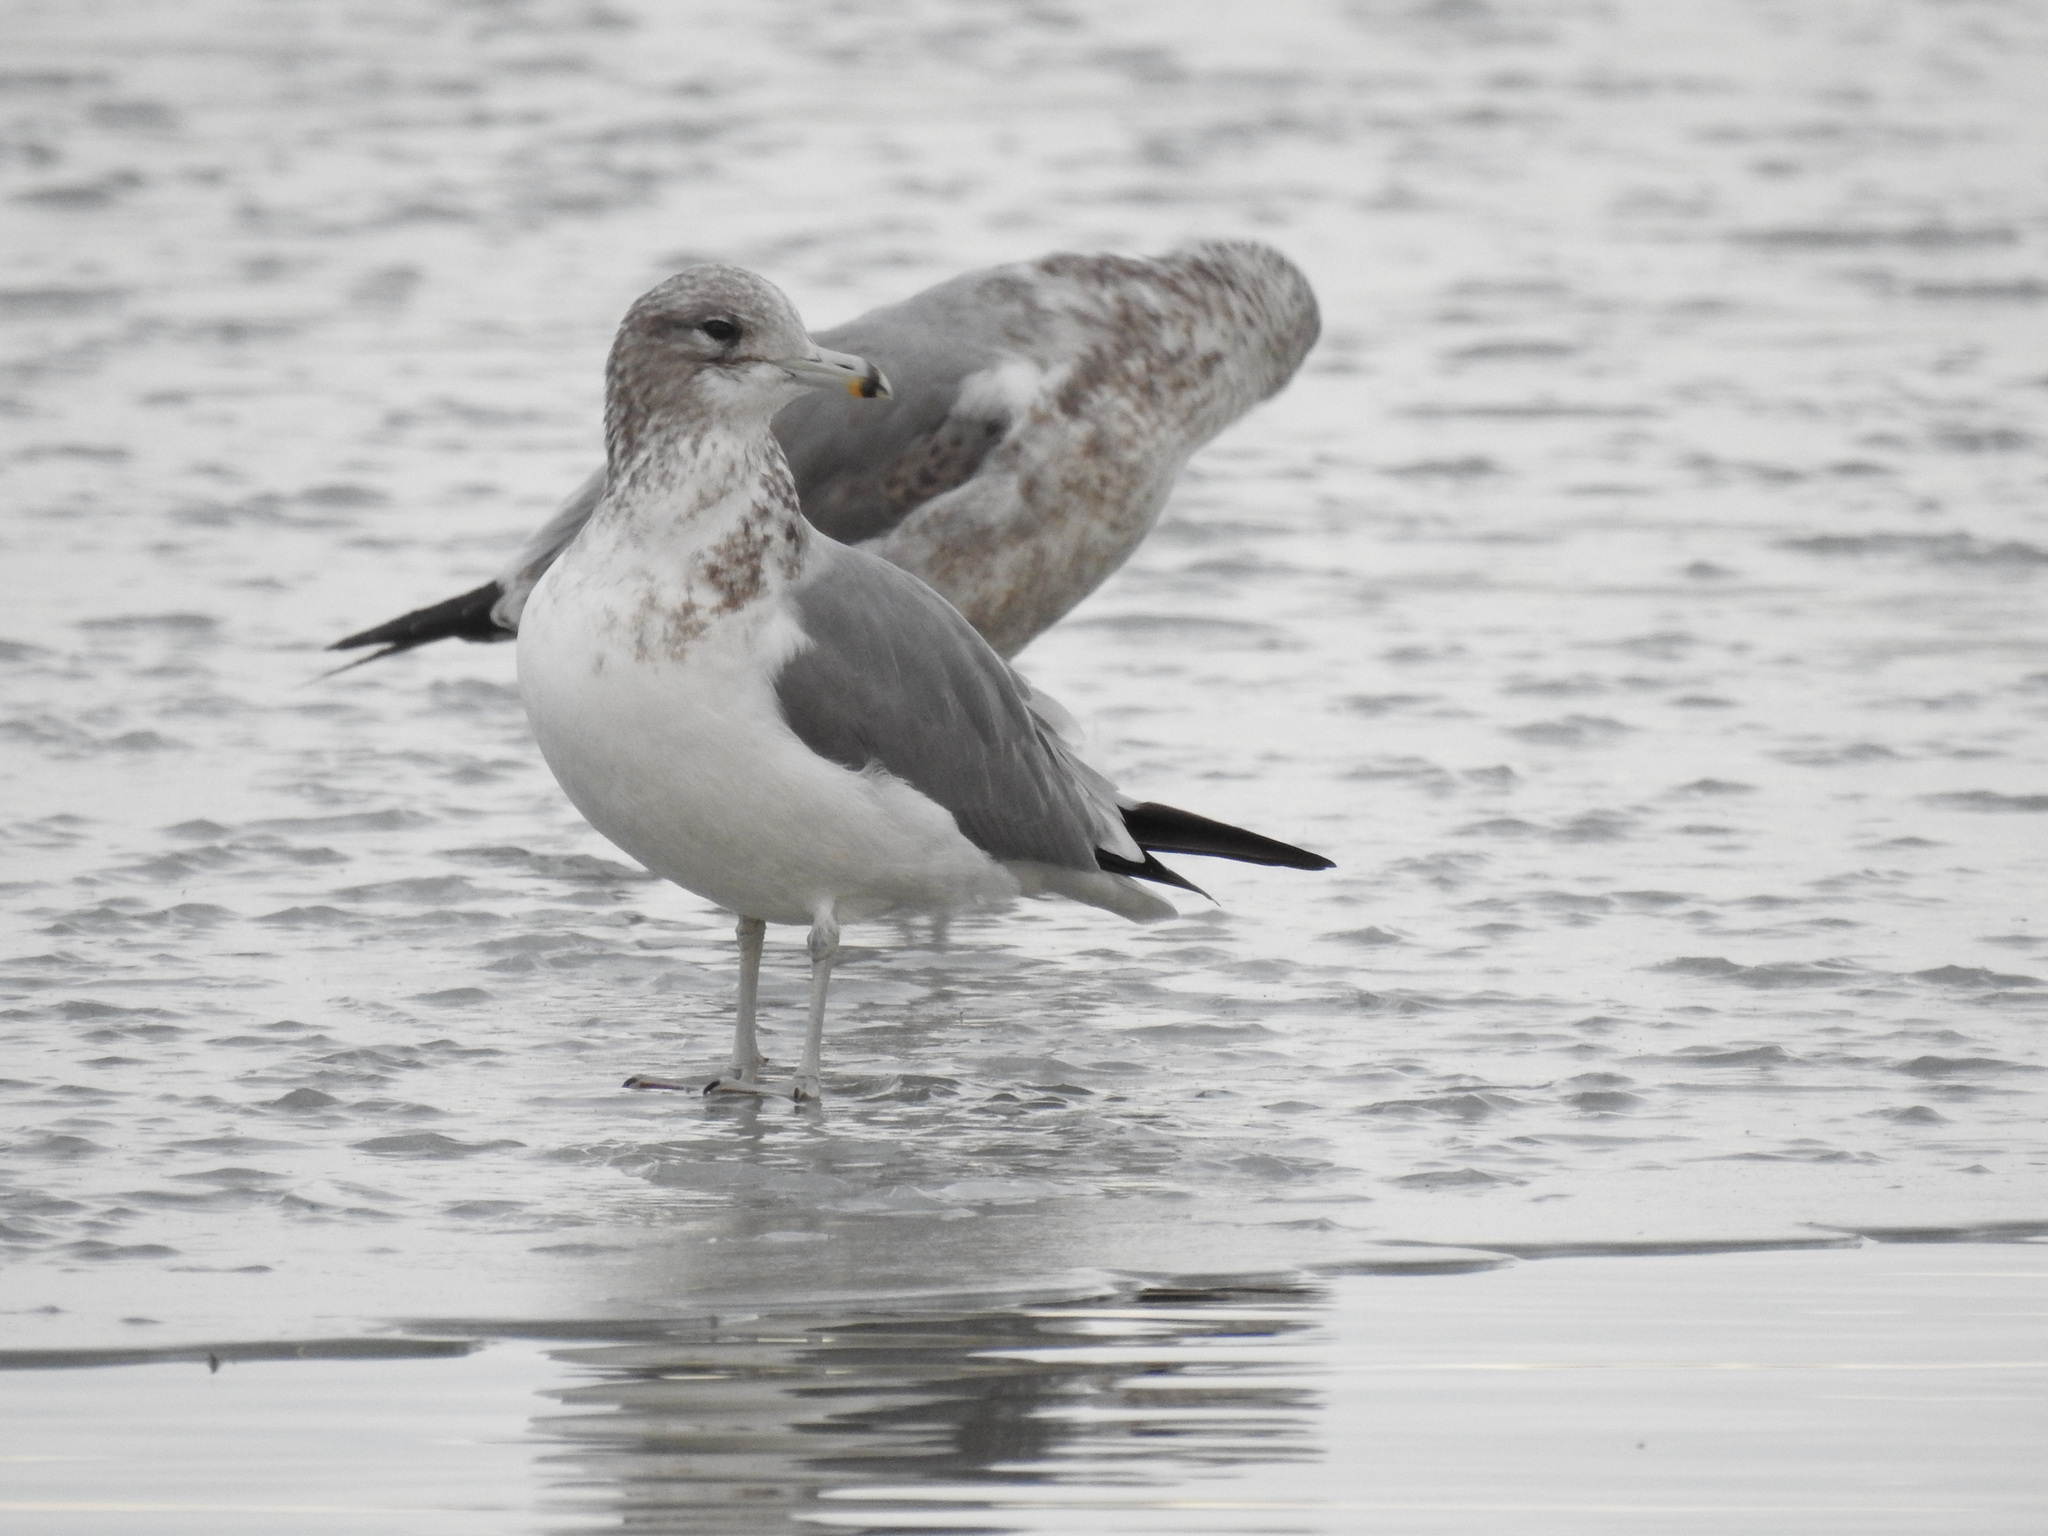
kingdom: Animalia
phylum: Chordata
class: Aves
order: Charadriiformes
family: Laridae
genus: Larus
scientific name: Larus californicus
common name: California gull
